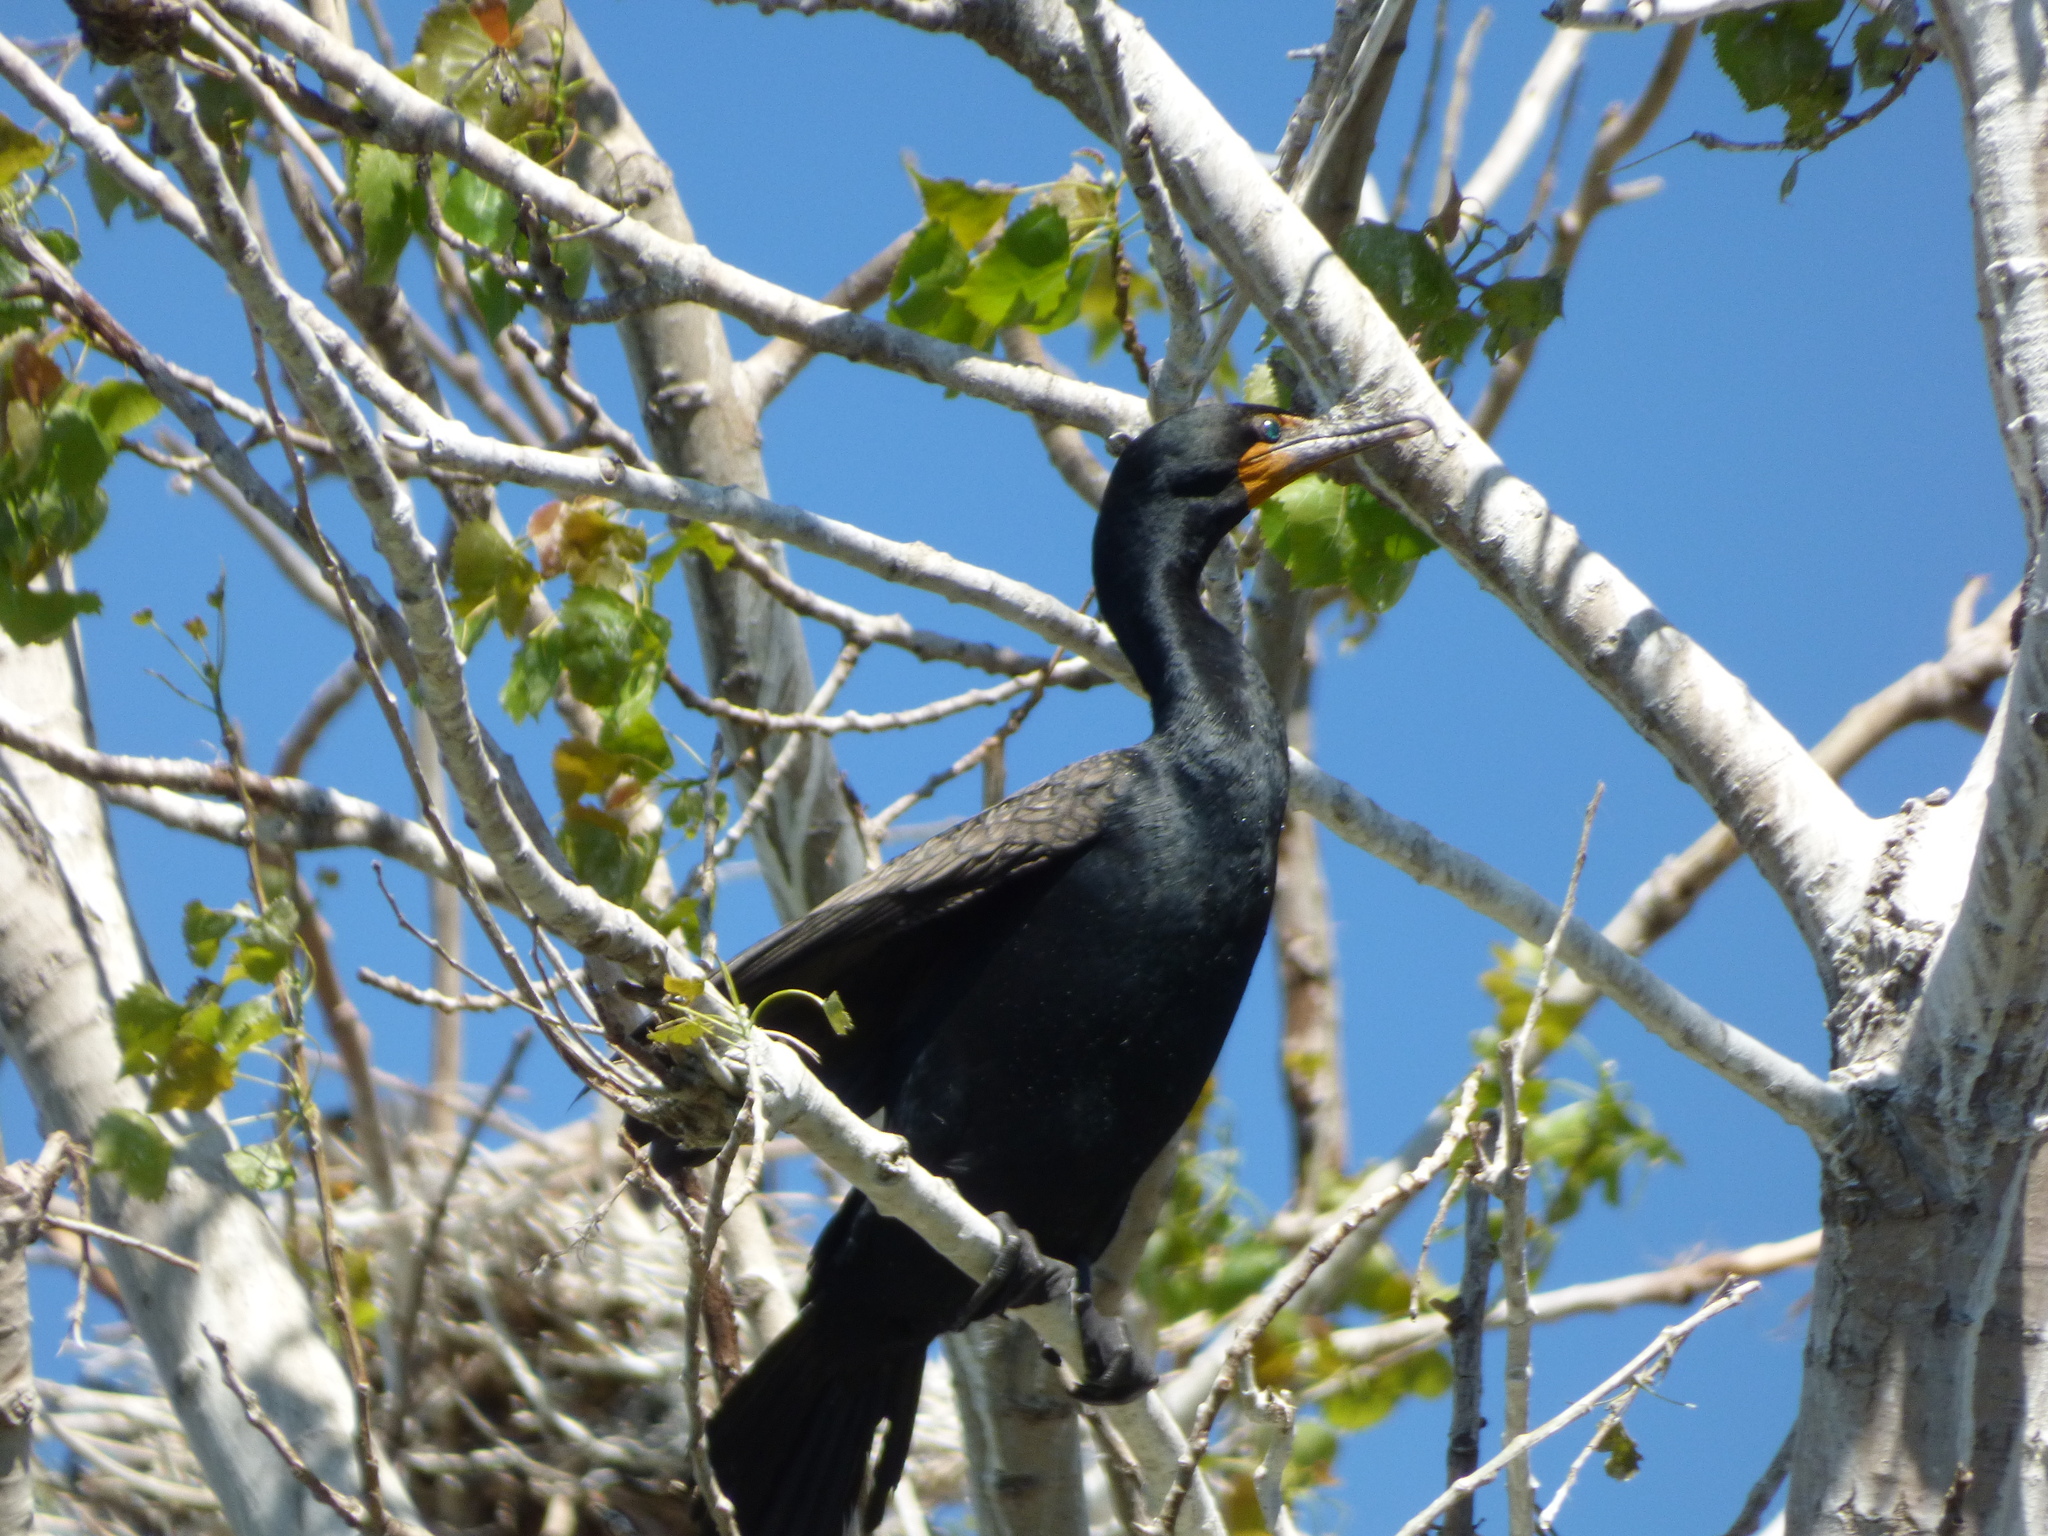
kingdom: Animalia
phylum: Chordata
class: Aves
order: Suliformes
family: Phalacrocoracidae
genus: Phalacrocorax
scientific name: Phalacrocorax auritus
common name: Double-crested cormorant
